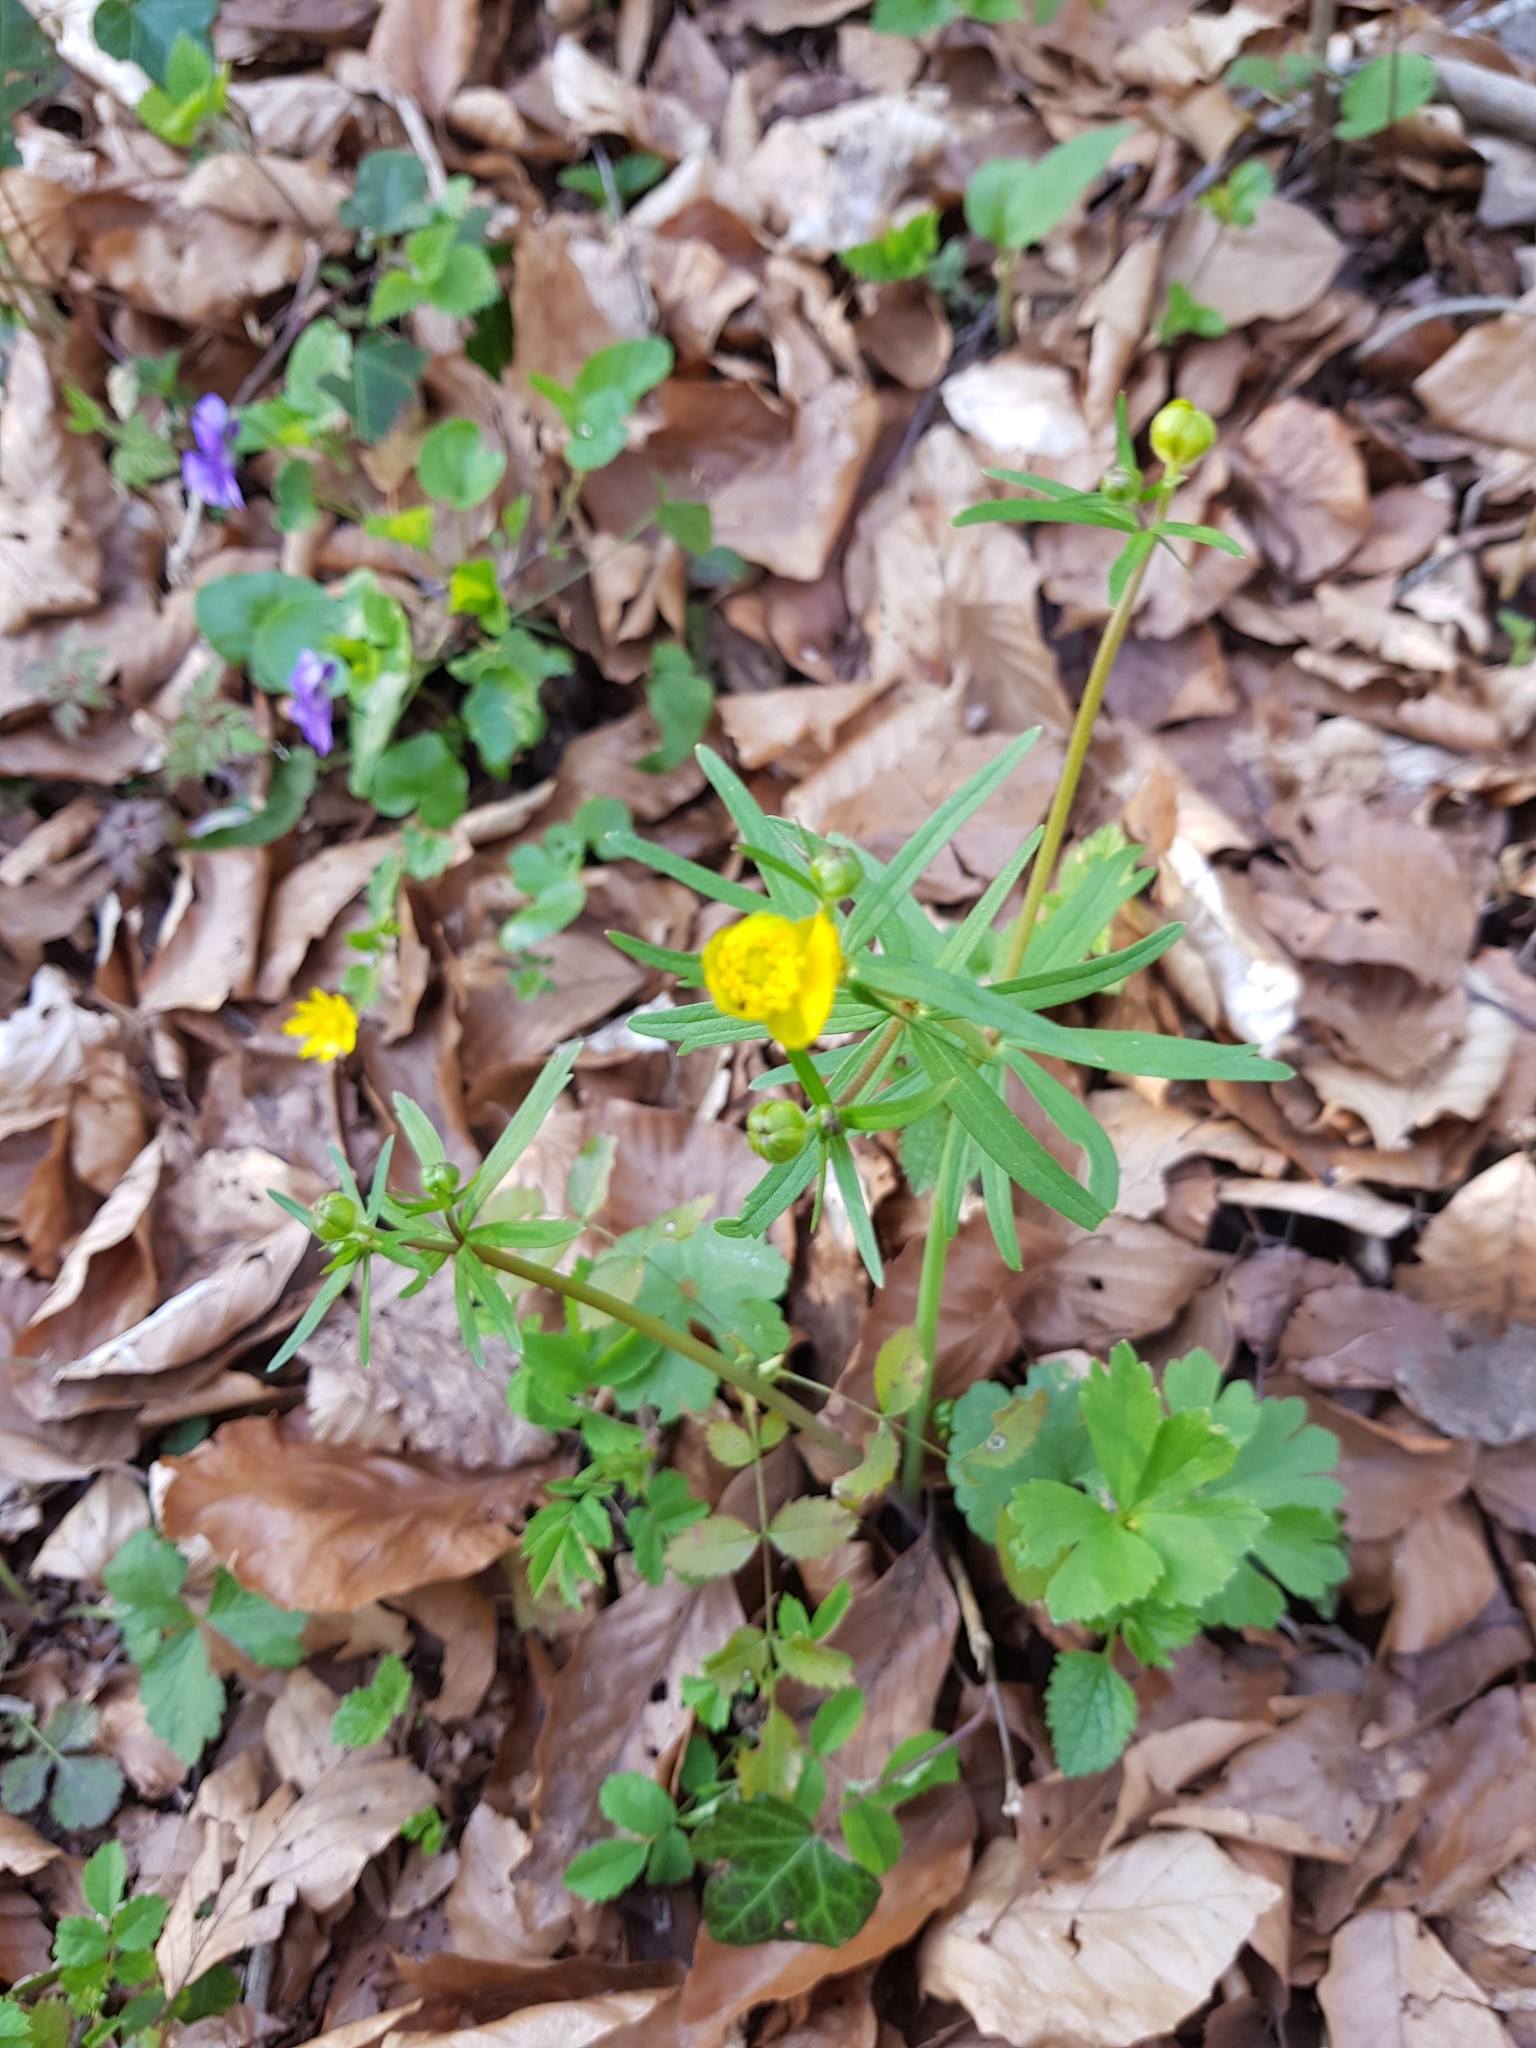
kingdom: Plantae
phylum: Tracheophyta
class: Magnoliopsida
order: Ranunculales
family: Ranunculaceae
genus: Ranunculus
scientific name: Ranunculus auricomus
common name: Goldilocks buttercup
